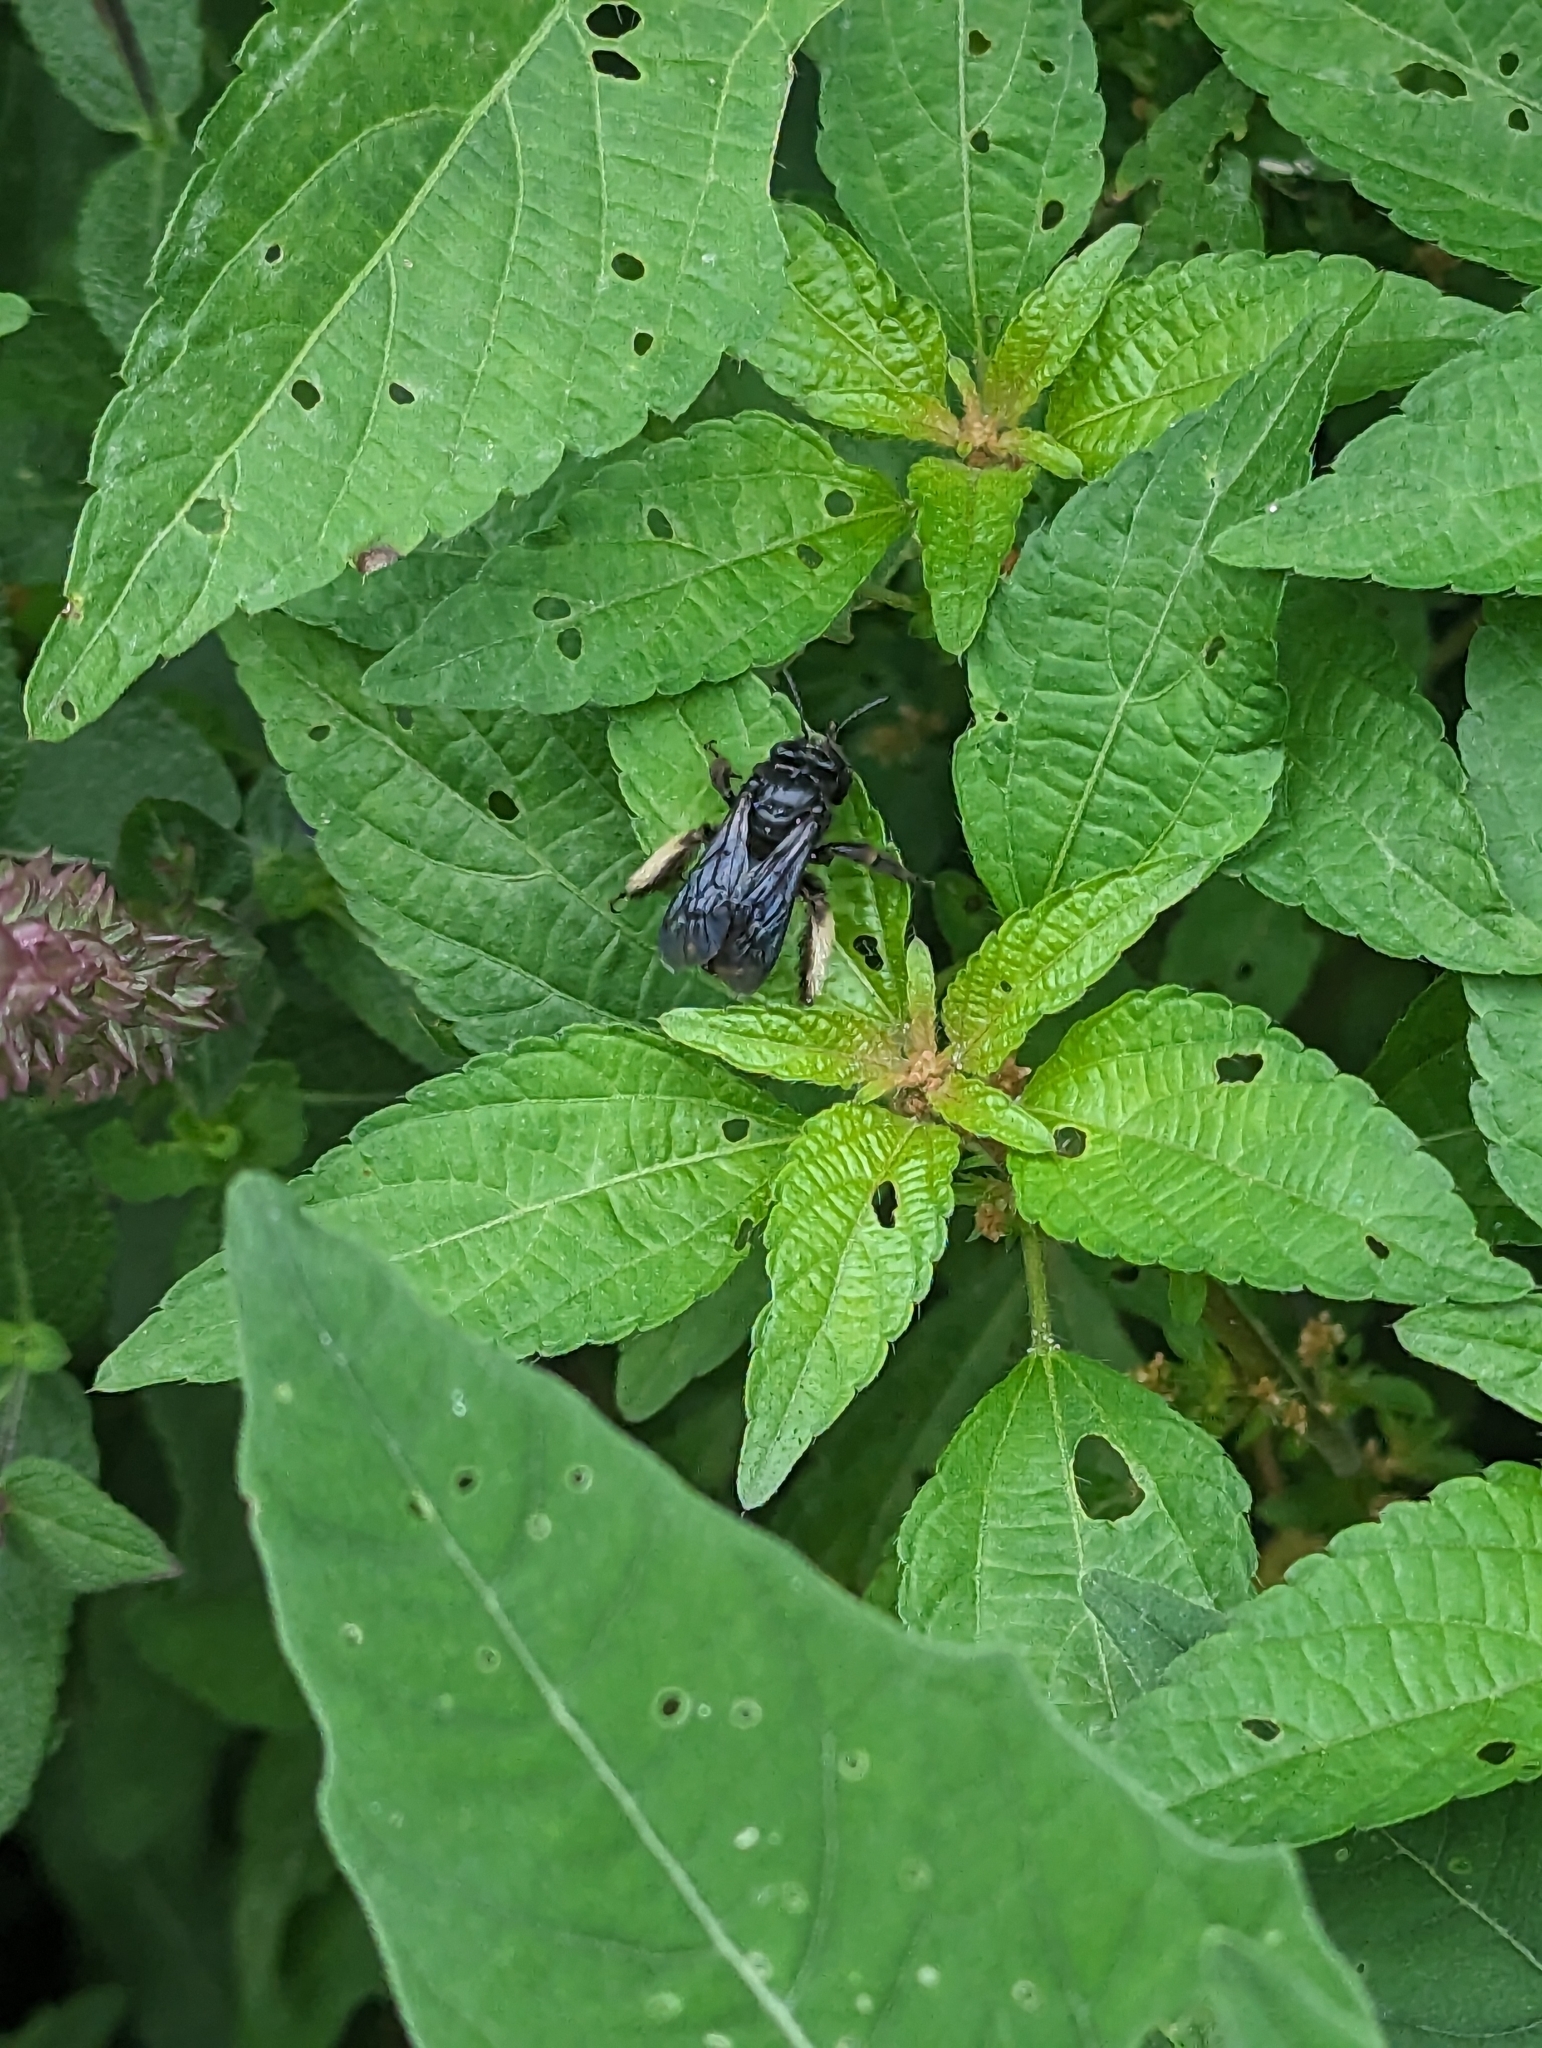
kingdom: Animalia
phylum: Arthropoda
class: Insecta
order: Hymenoptera
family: Apidae
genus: Melissodes
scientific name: Melissodes bimaculatus
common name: Two-spotted long-horned bee
